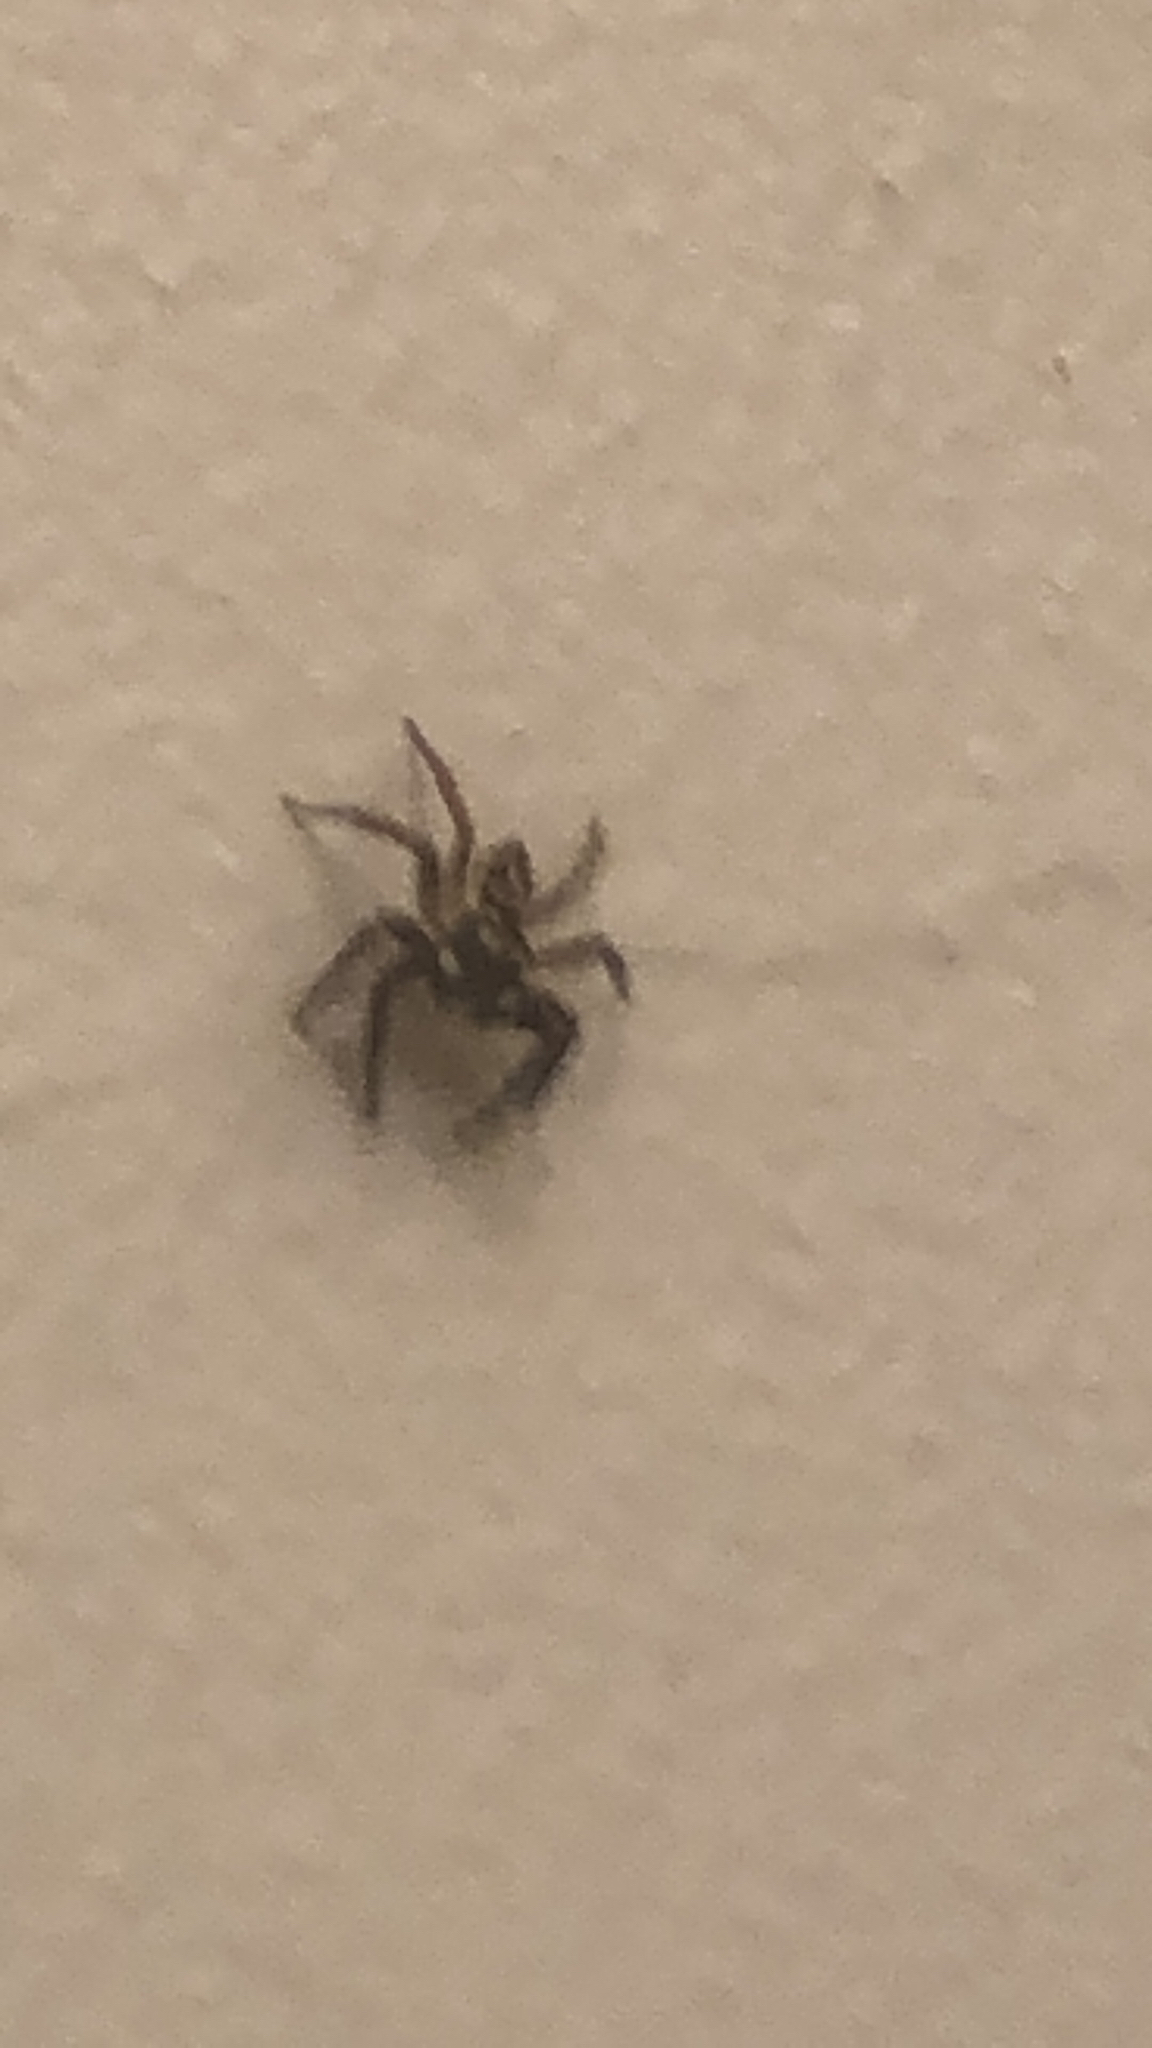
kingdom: Animalia
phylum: Arthropoda
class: Arachnida
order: Araneae
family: Salticidae
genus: Anasaitis
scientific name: Anasaitis canosa
